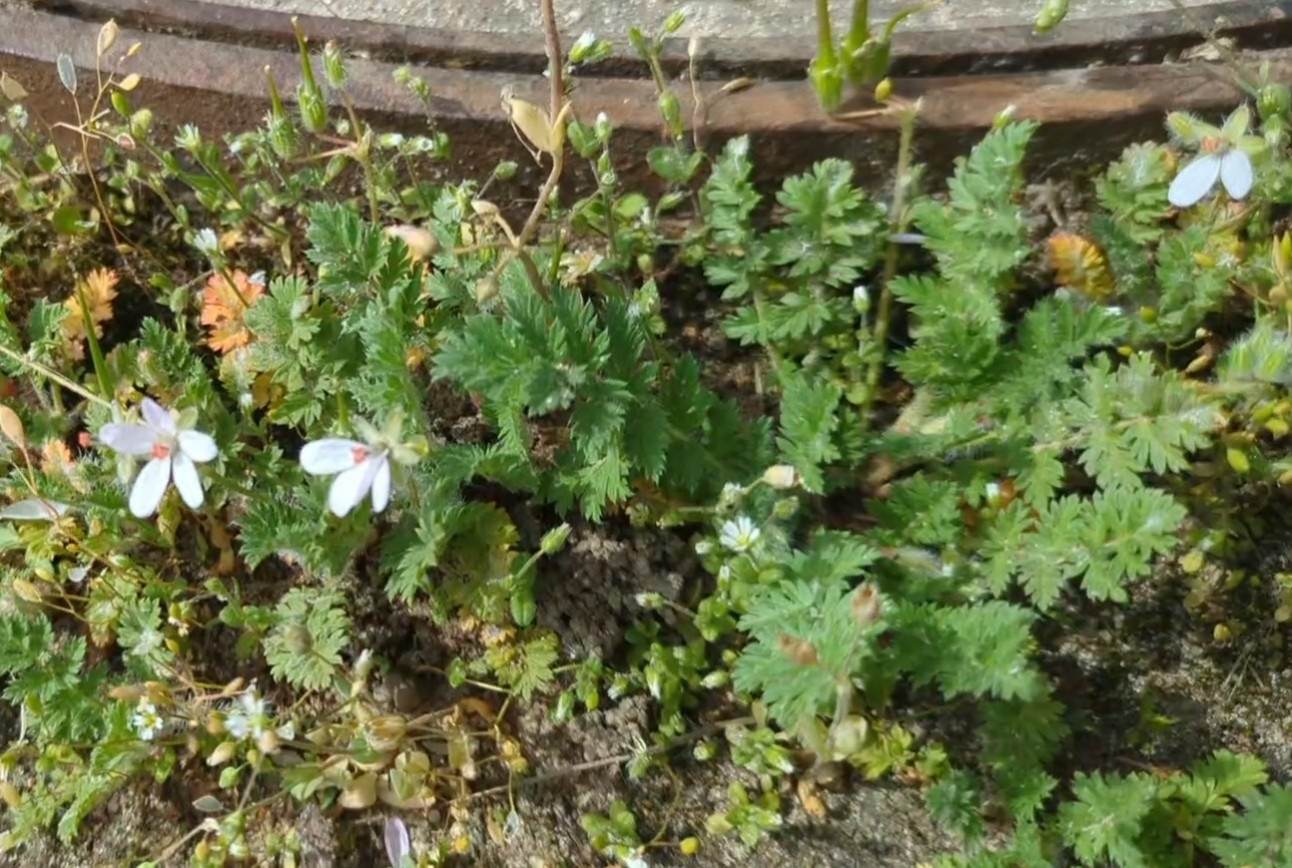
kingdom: Plantae
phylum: Tracheophyta
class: Magnoliopsida
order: Geraniales
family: Geraniaceae
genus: Erodium
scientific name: Erodium cicutarium
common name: Common stork's-bill
